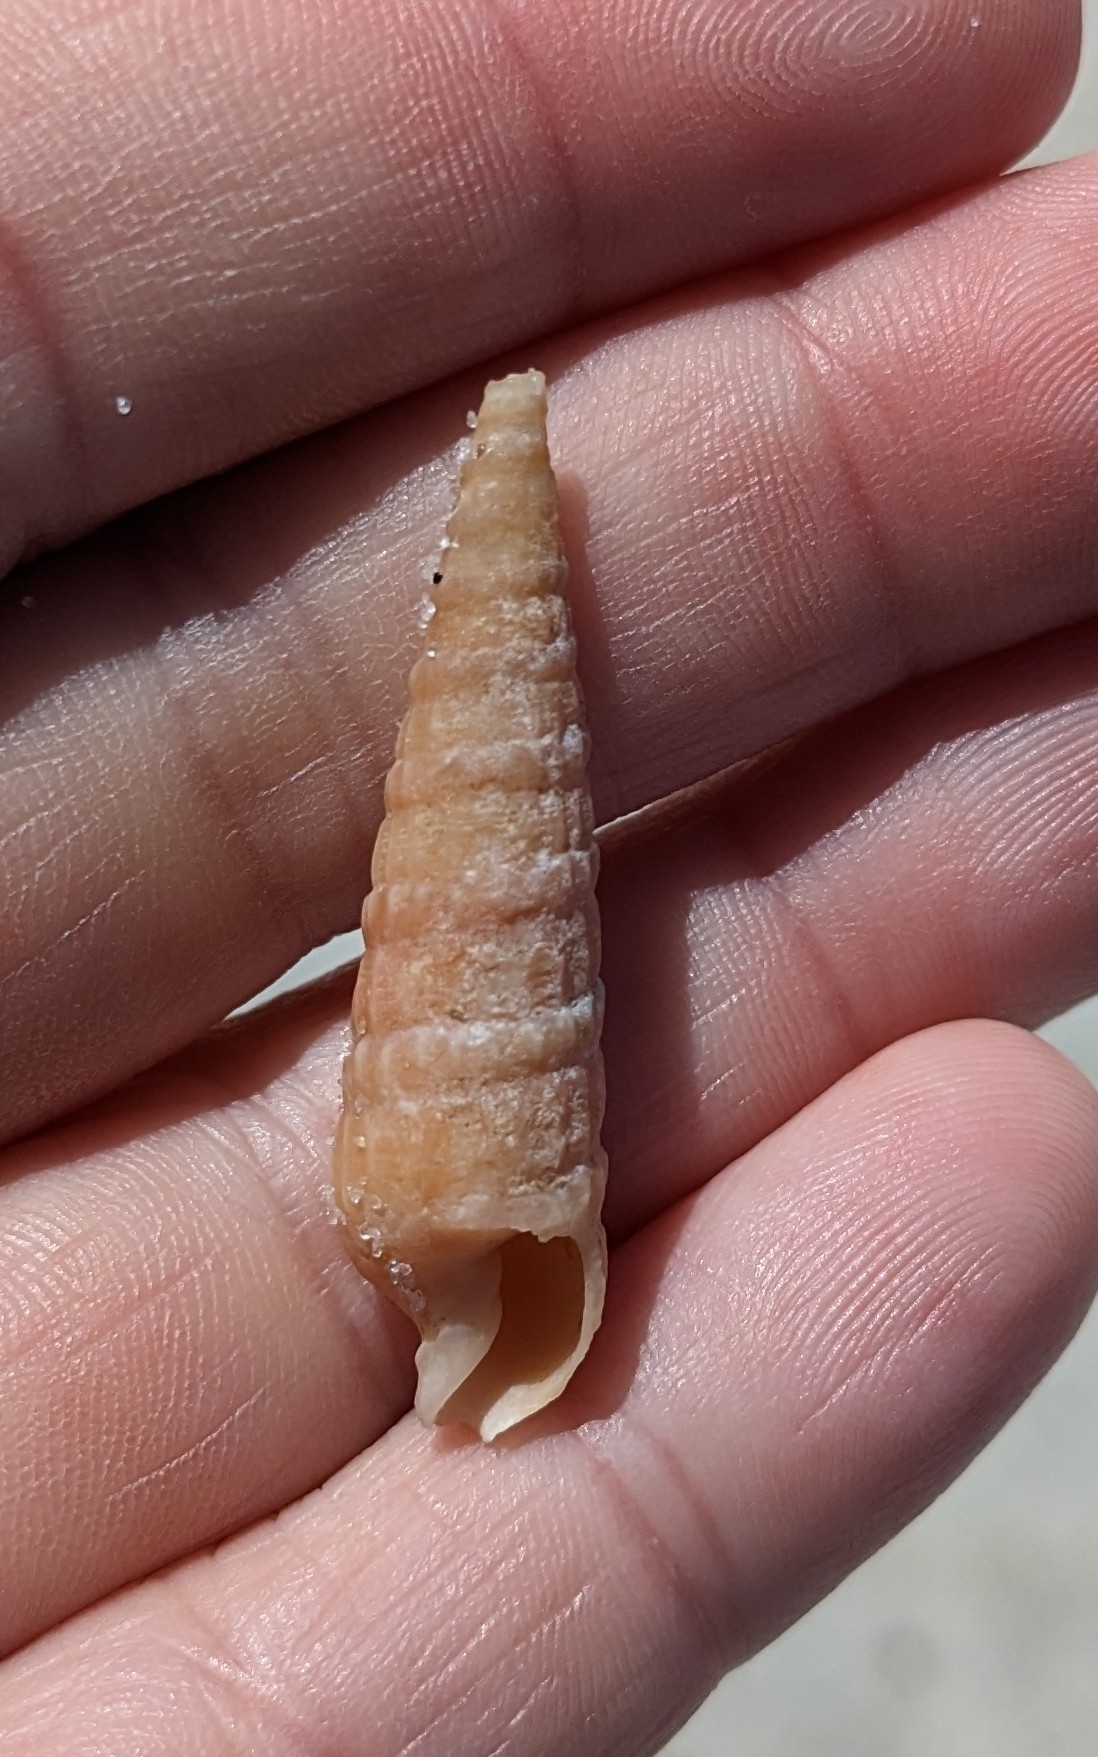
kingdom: Animalia
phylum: Mollusca
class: Gastropoda
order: Neogastropoda
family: Terebridae
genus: Neoterebra
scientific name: Neoterebra dislocata
